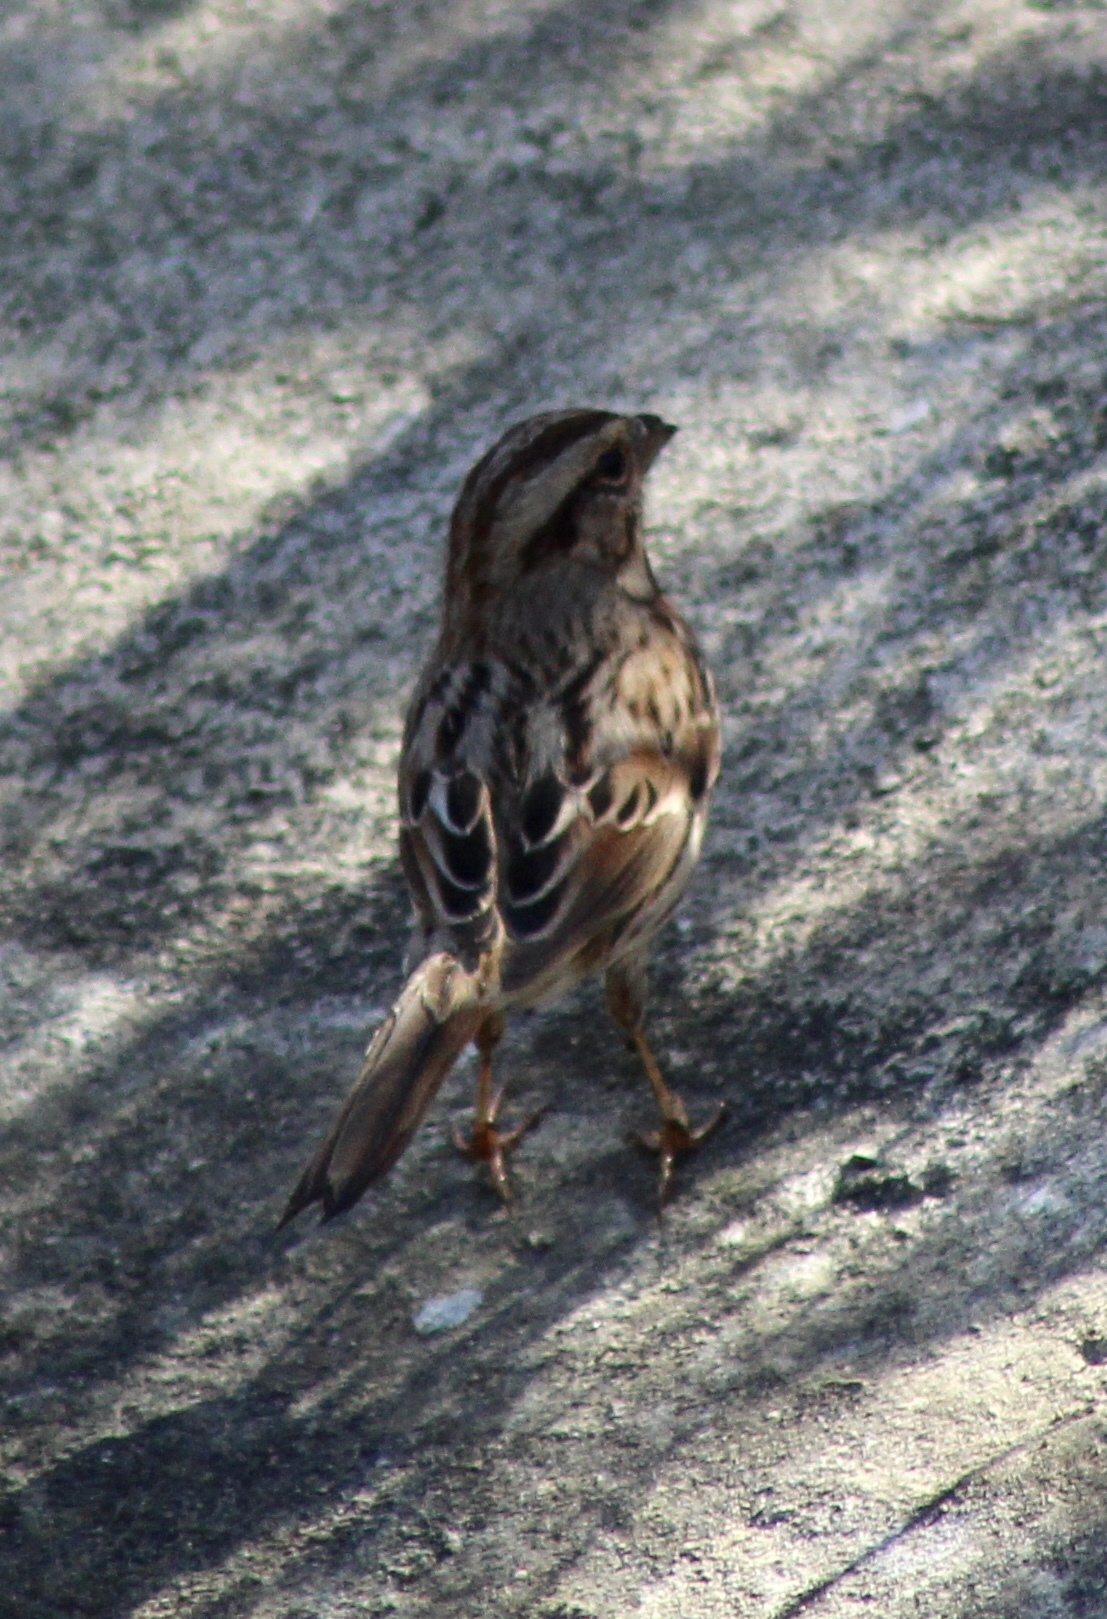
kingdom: Animalia
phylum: Chordata
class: Aves
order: Passeriformes
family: Passerellidae
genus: Melospiza
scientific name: Melospiza melodia
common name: Song sparrow
